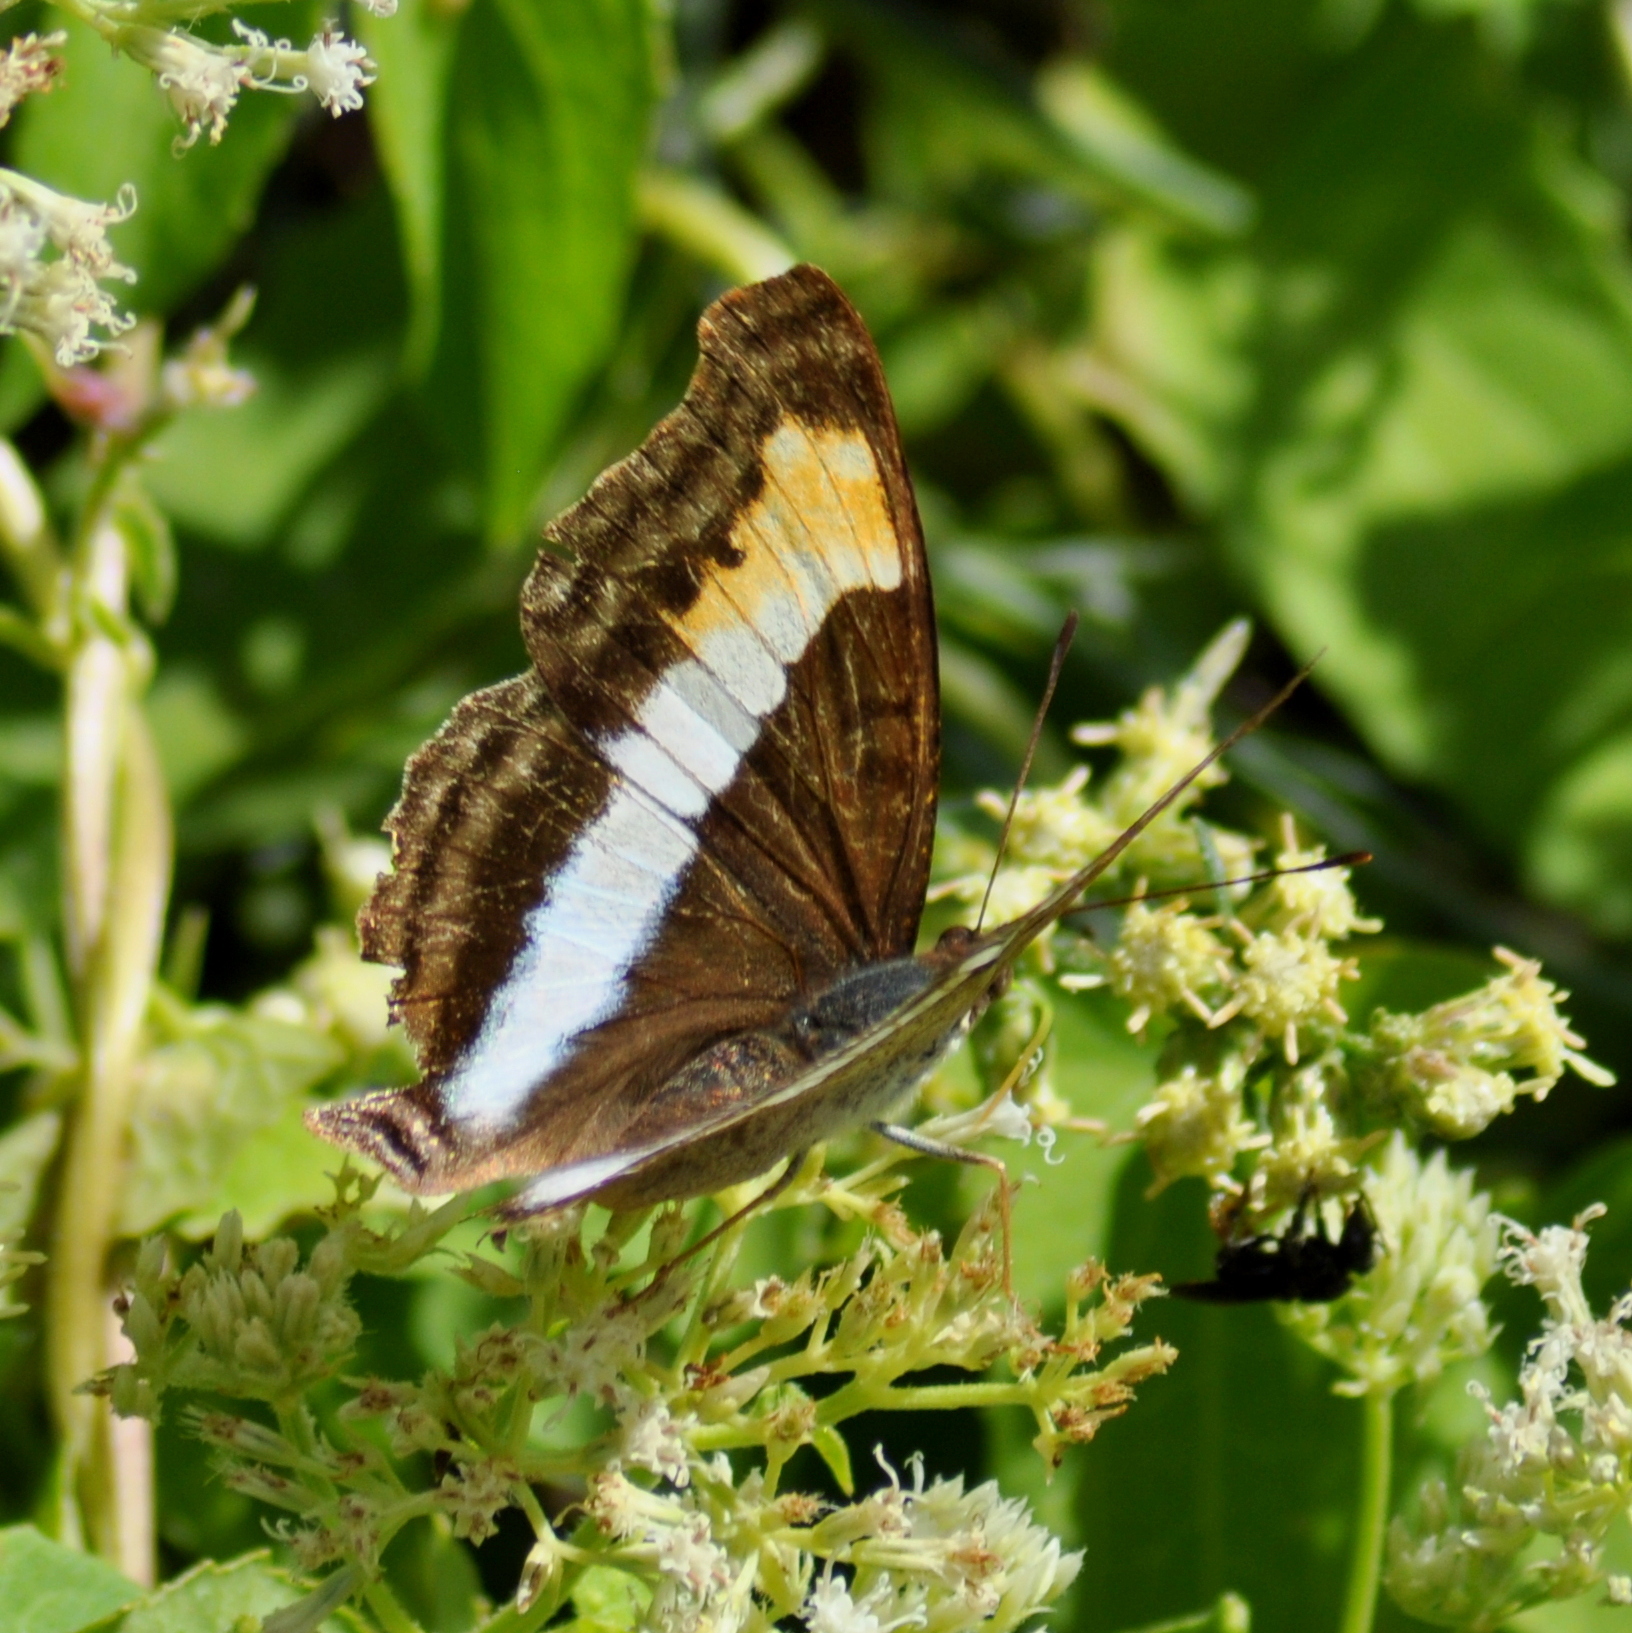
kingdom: Animalia
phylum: Arthropoda
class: Insecta
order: Lepidoptera
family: Nymphalidae
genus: Doxocopa
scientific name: Doxocopa laurentia
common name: Turquoise emperor
